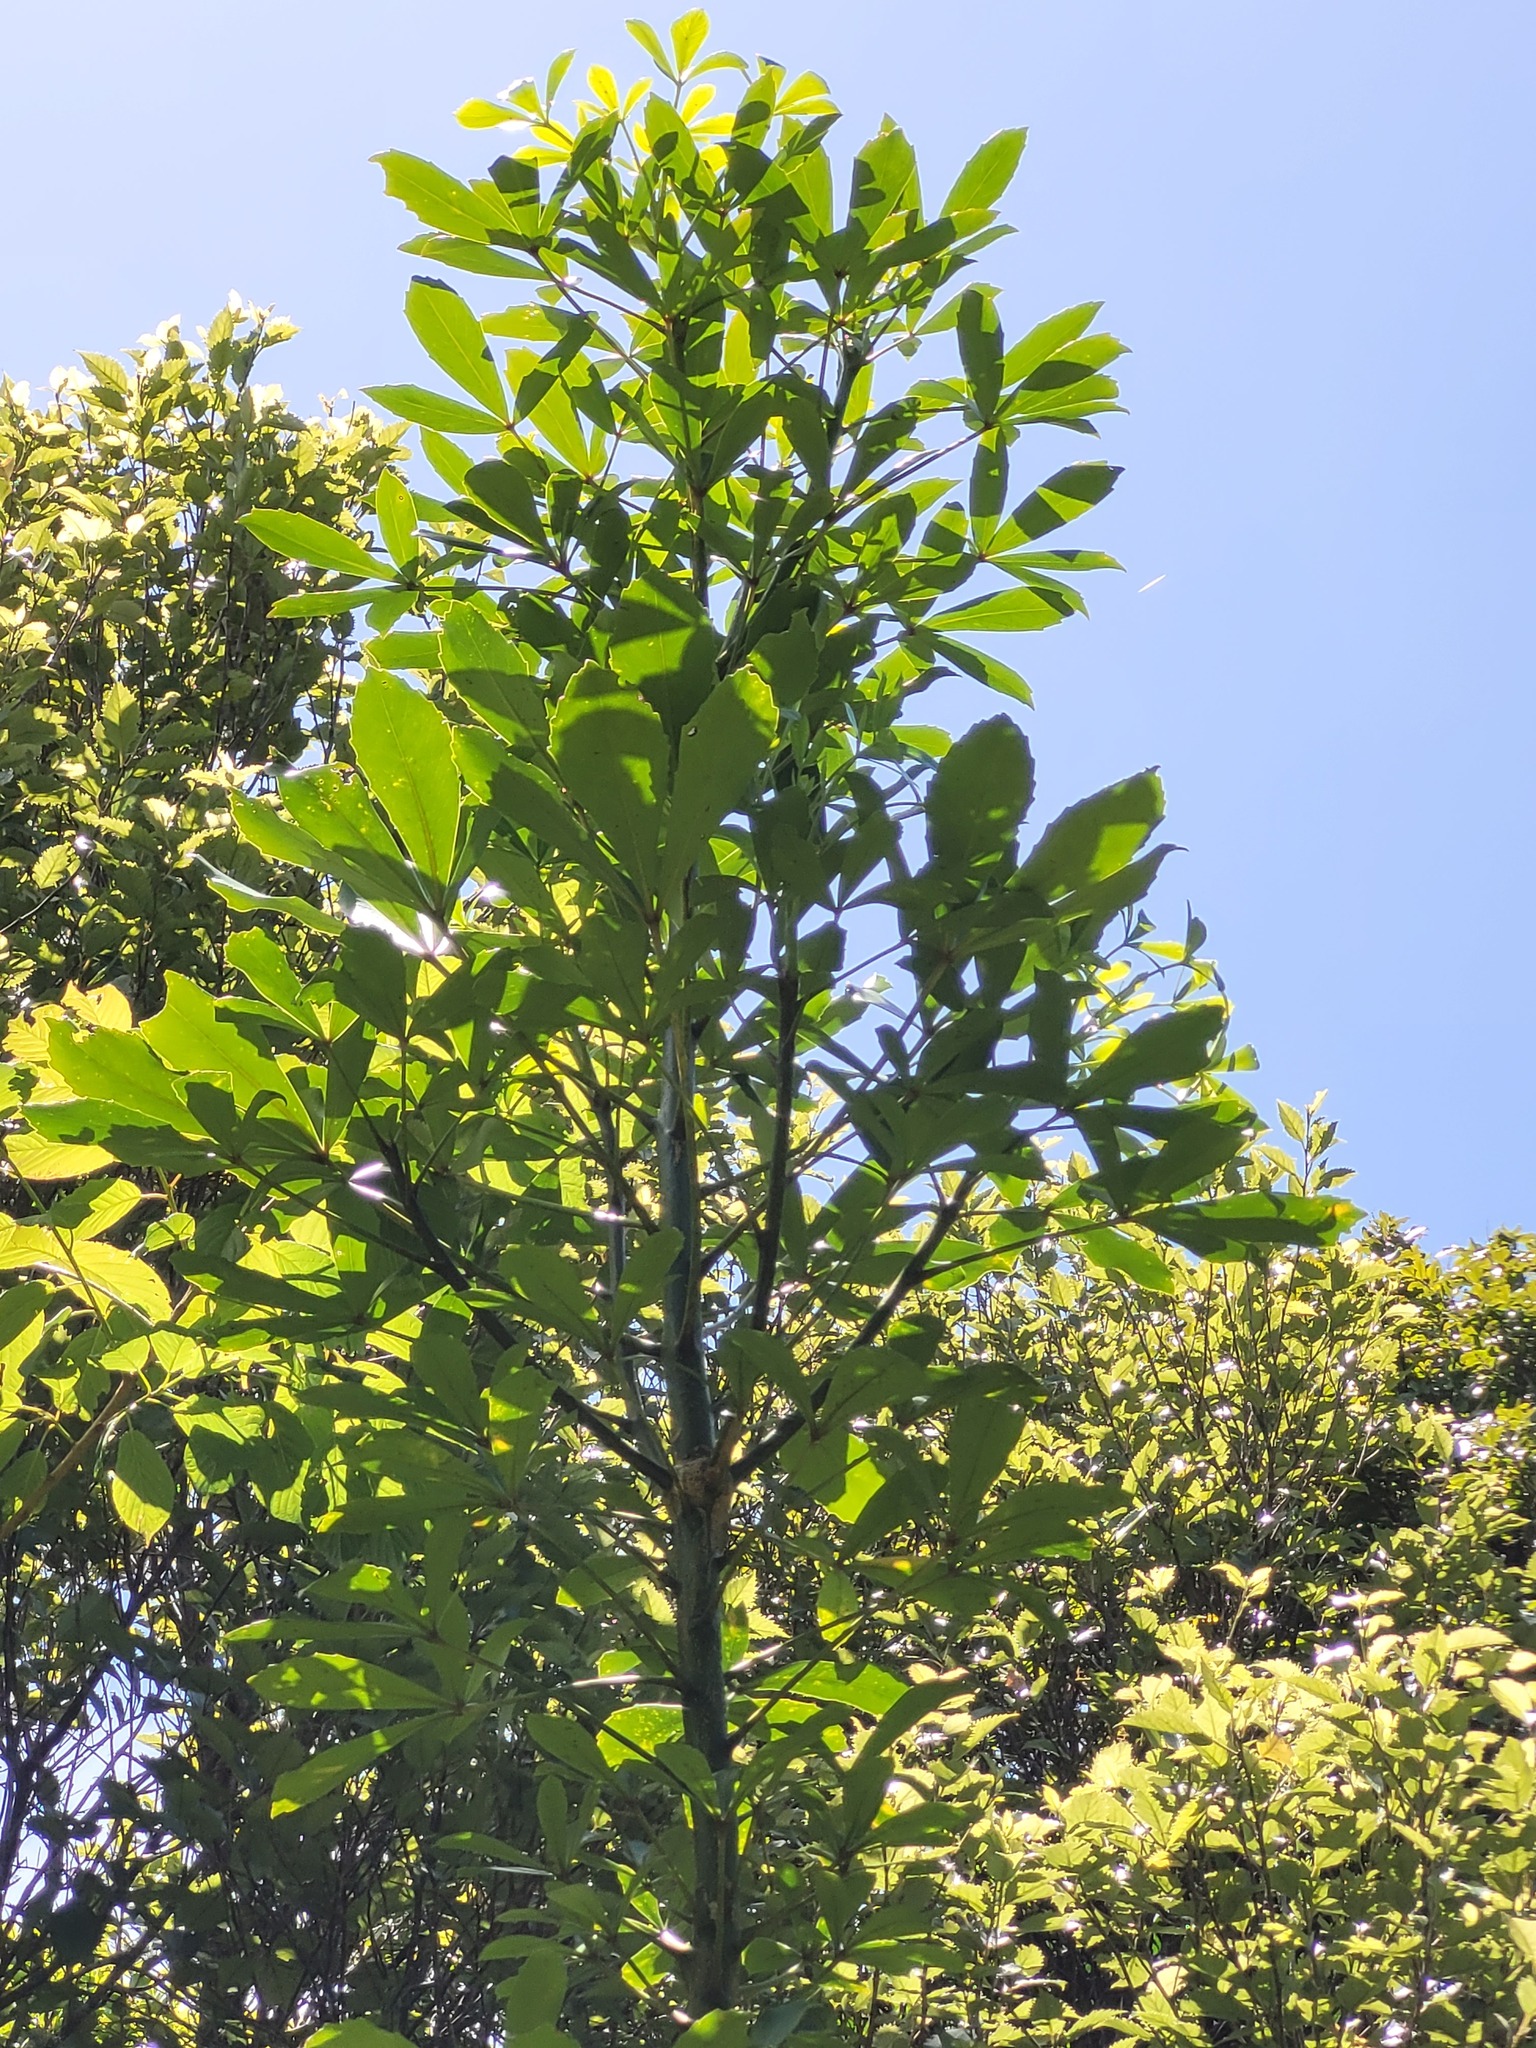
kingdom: Plantae
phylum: Tracheophyta
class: Magnoliopsida
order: Apiales
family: Araliaceae
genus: Pseudopanax
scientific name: Pseudopanax lessonii
